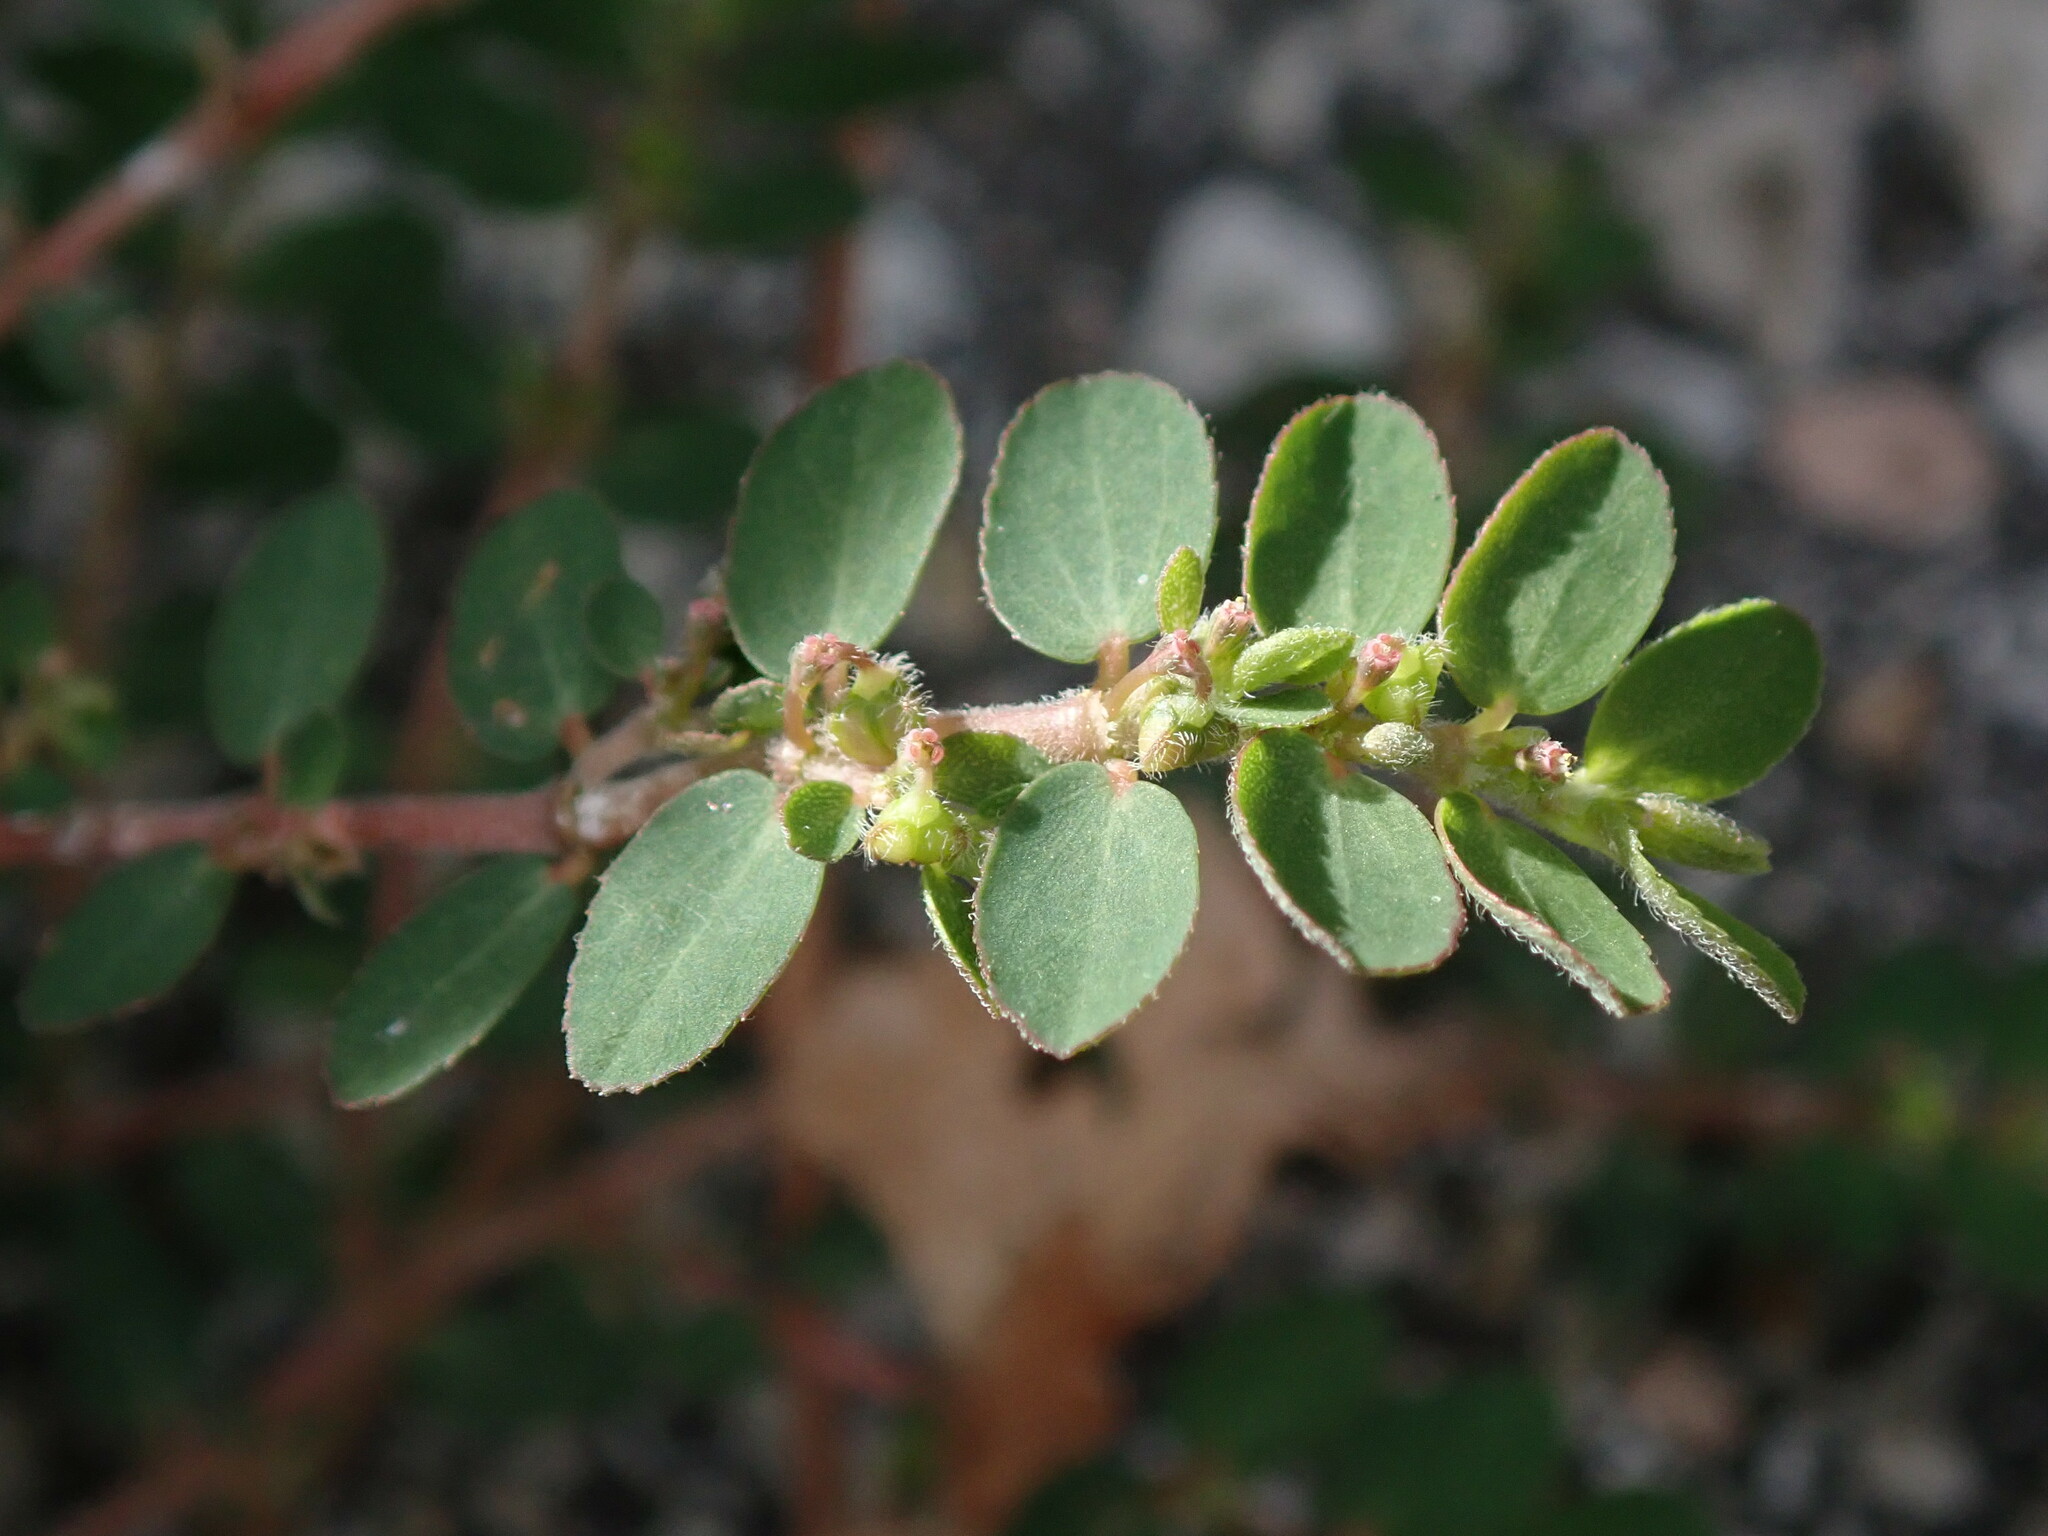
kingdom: Plantae
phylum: Tracheophyta
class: Magnoliopsida
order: Malpighiales
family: Euphorbiaceae
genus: Euphorbia
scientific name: Euphorbia prostrata
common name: Prostrate sandmat
